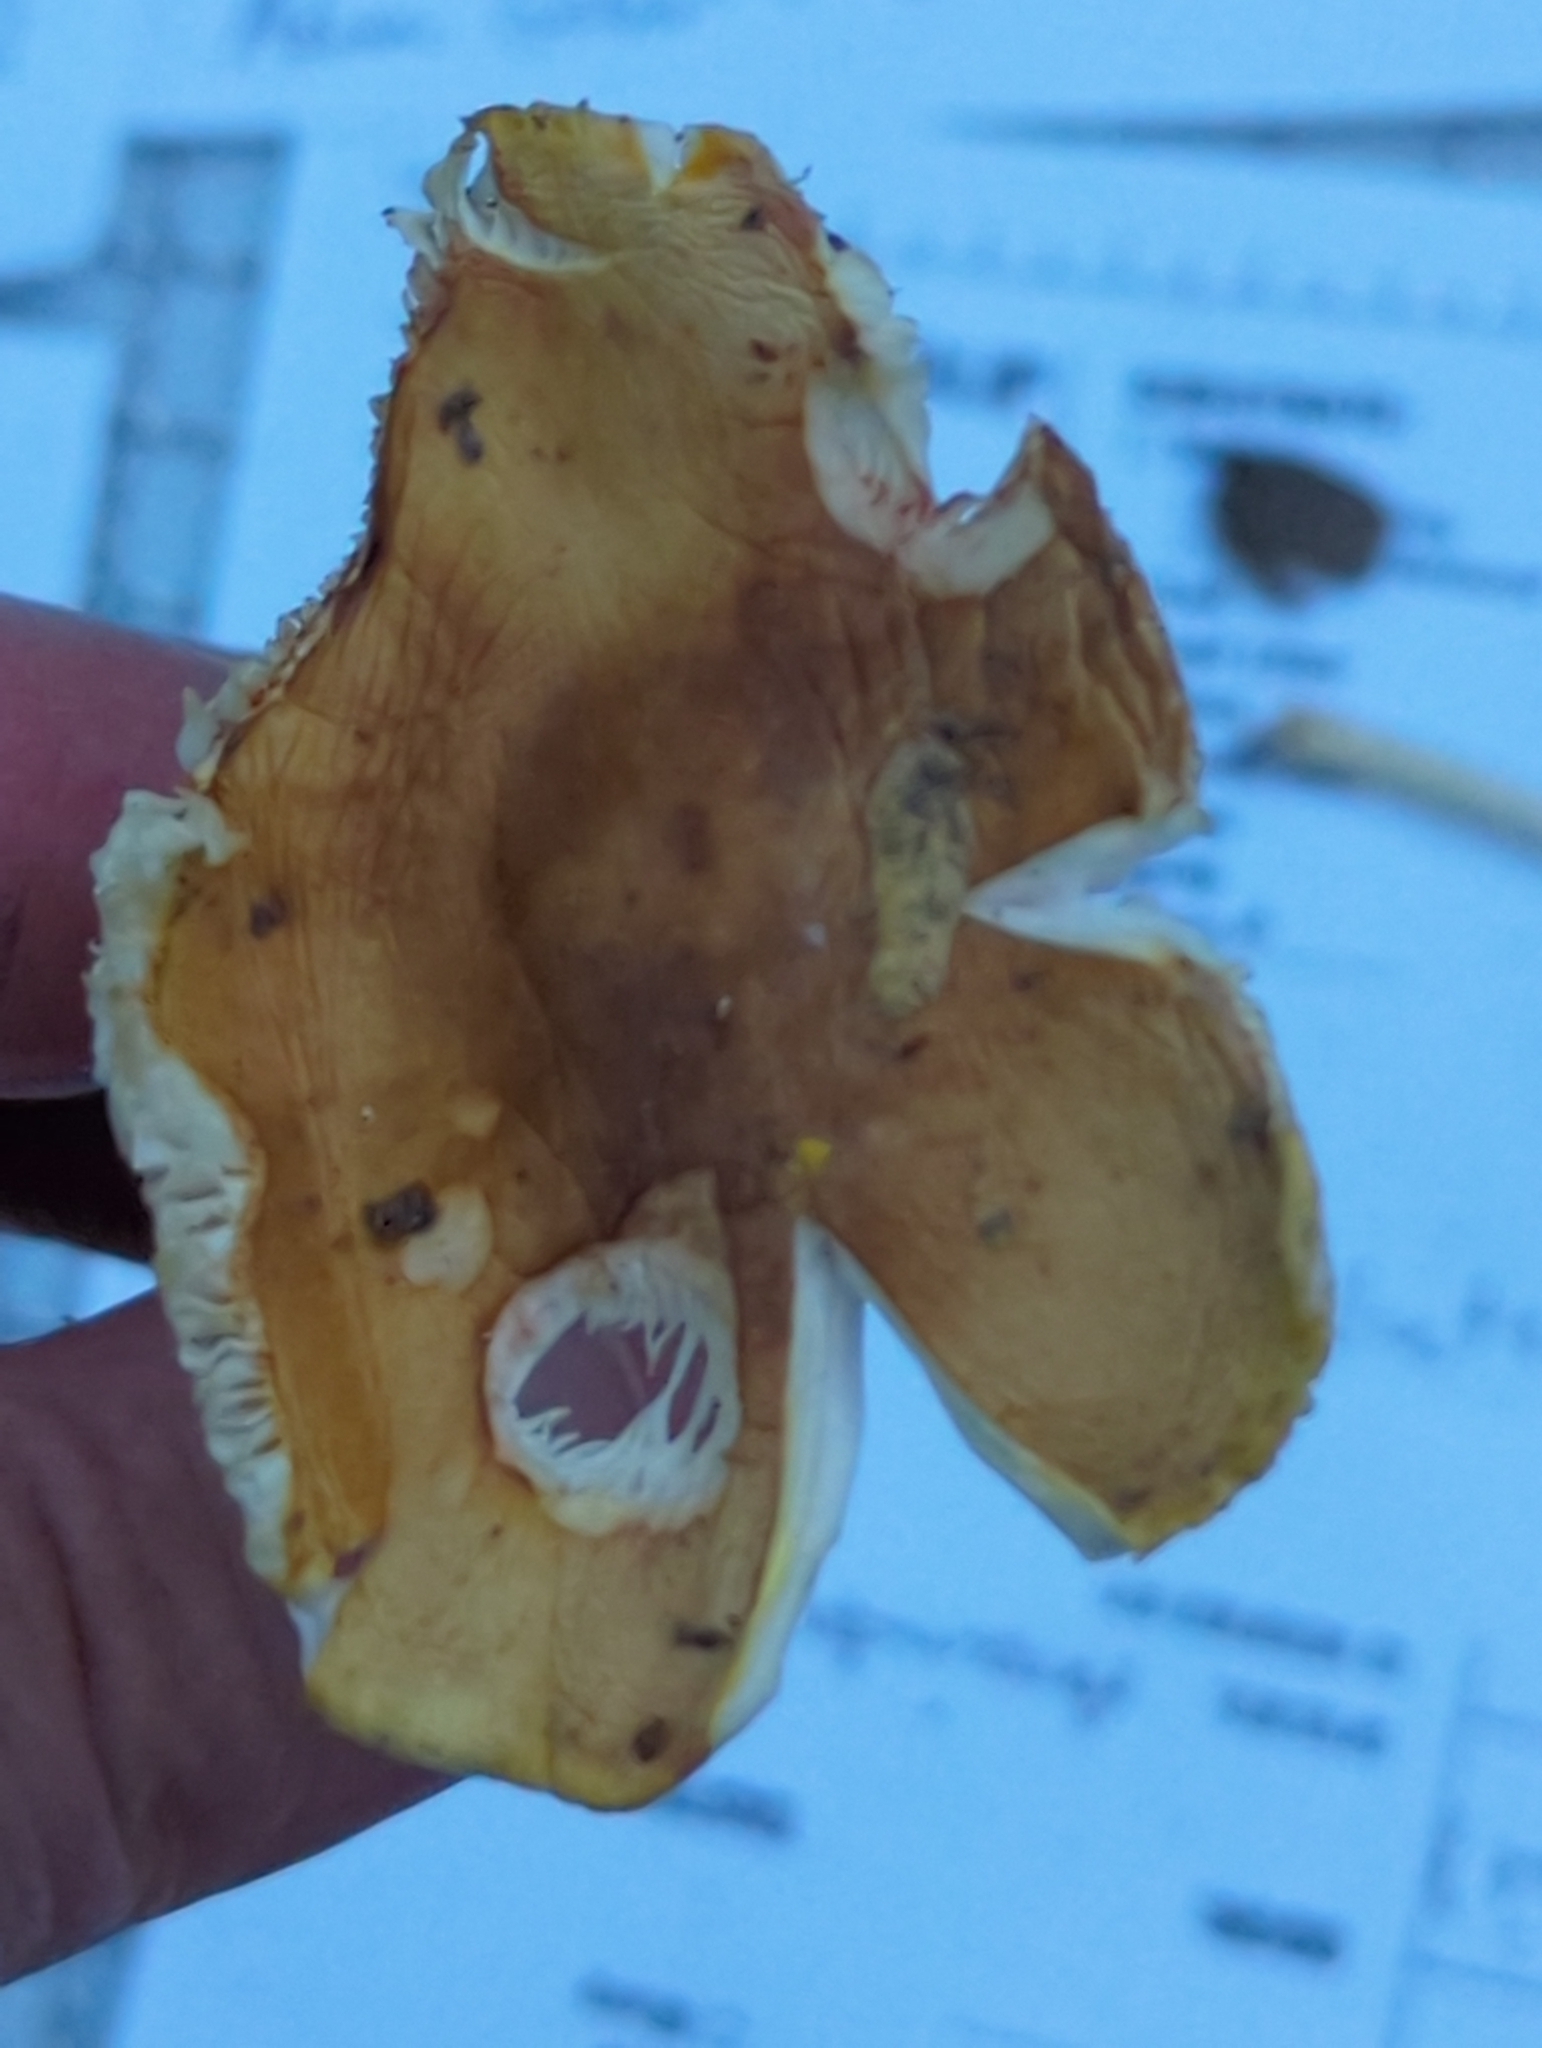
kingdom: Fungi
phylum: Basidiomycota
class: Agaricomycetes
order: Agaricales
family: Amanitaceae
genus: Amanita
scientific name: Amanita flavorubens
